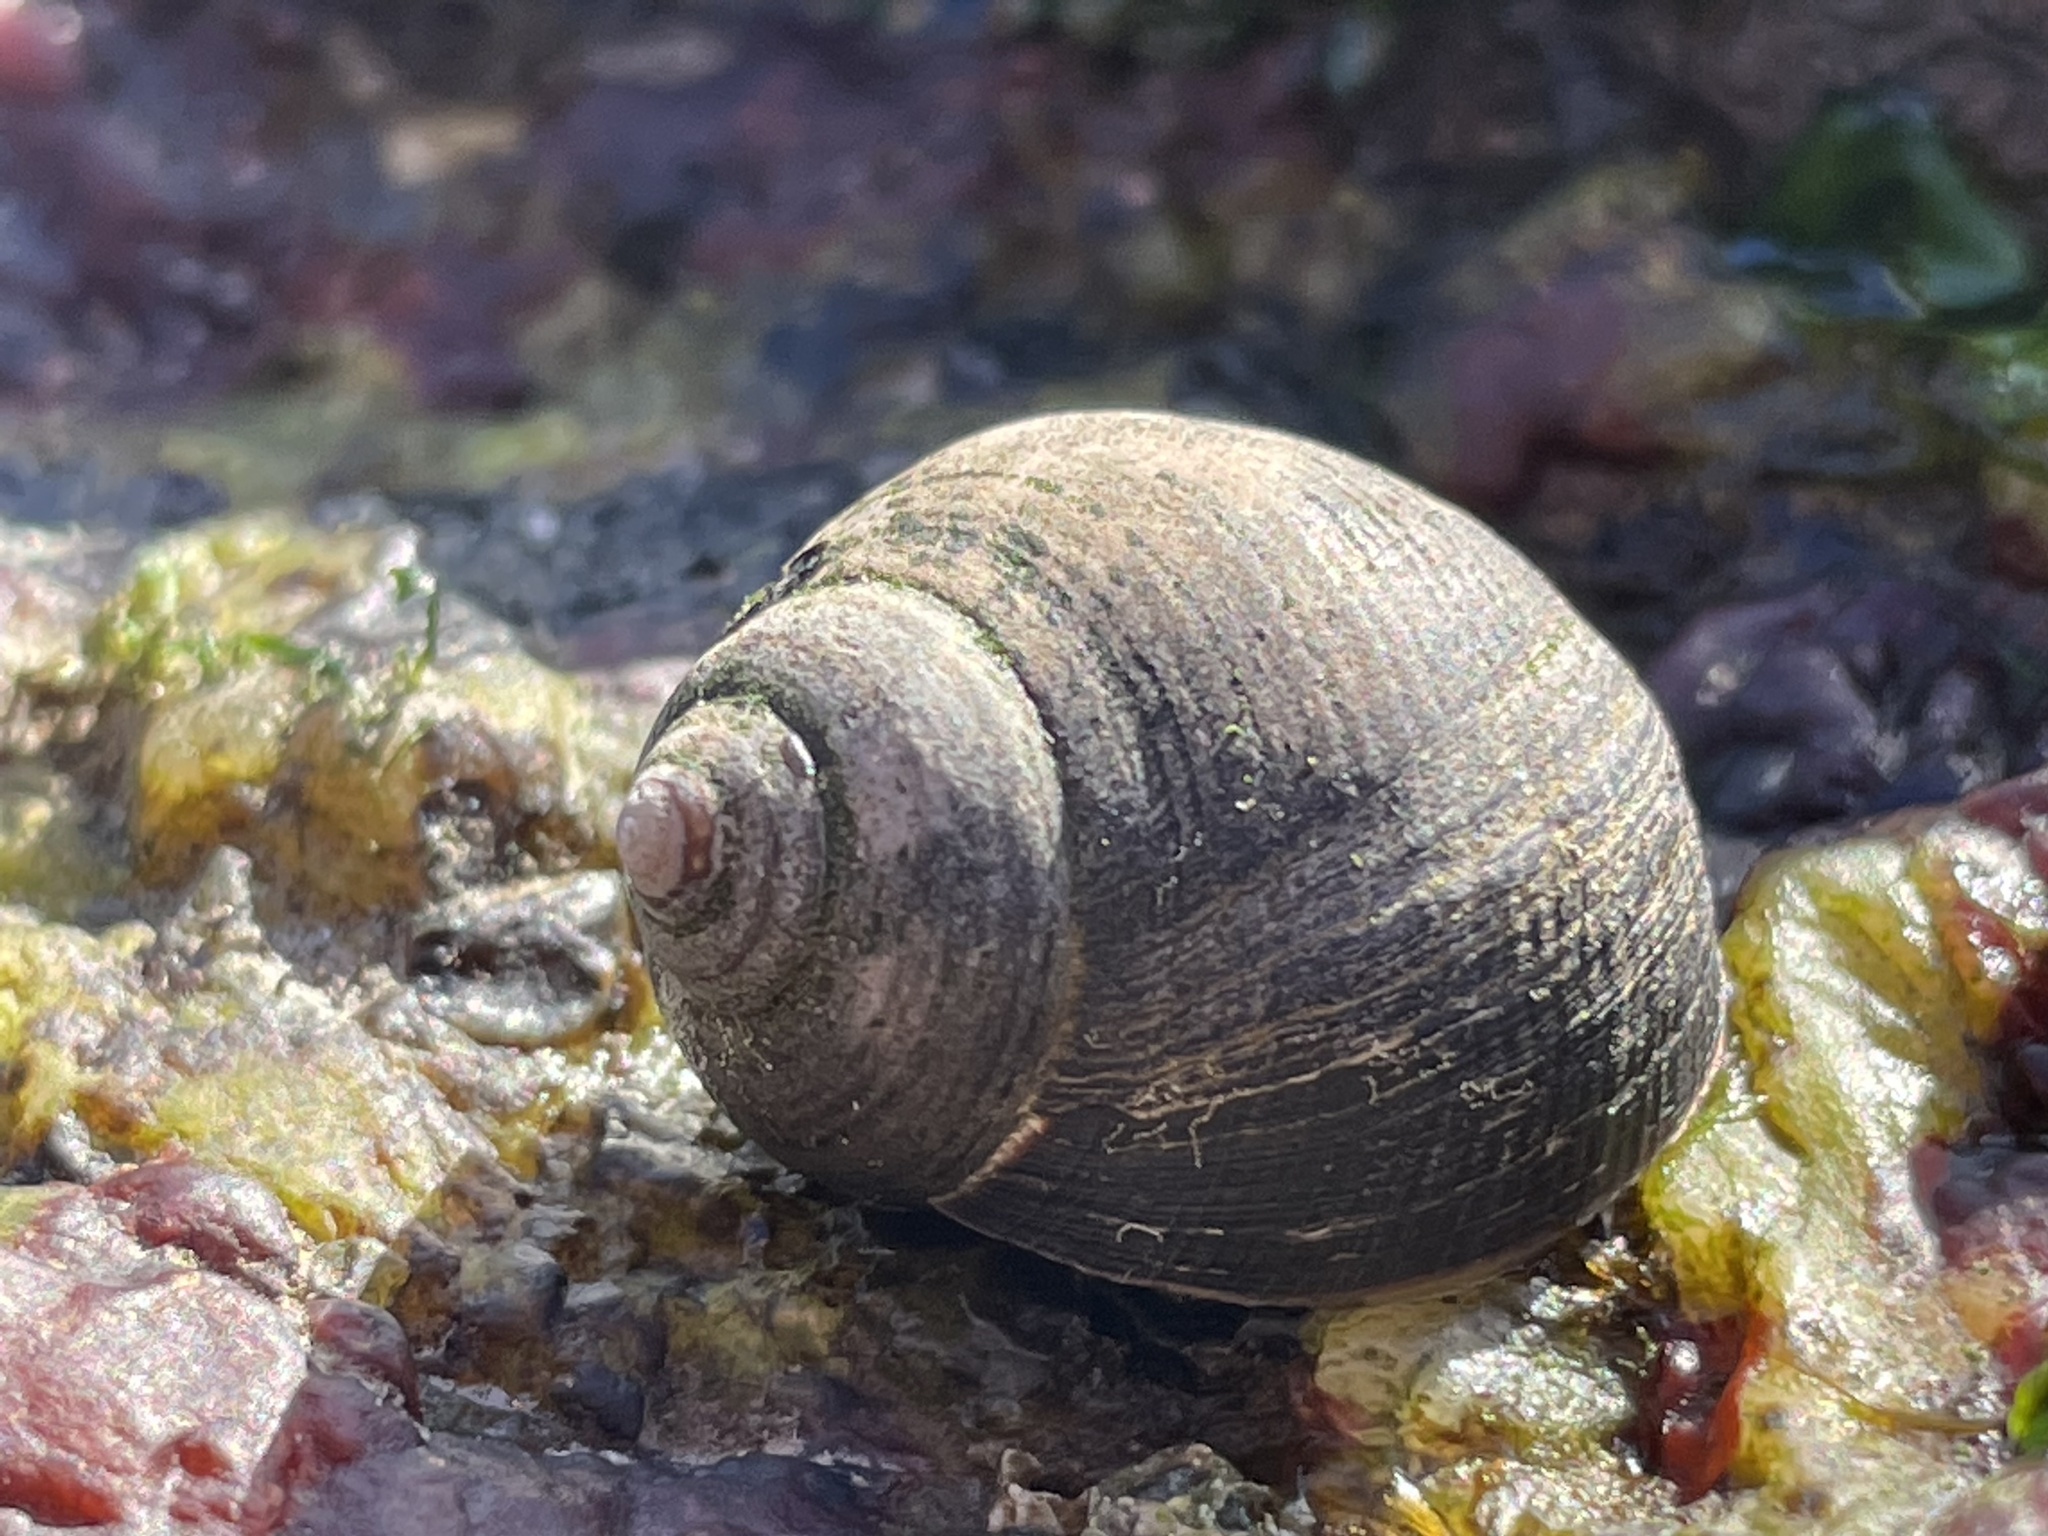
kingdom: Animalia
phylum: Mollusca
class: Gastropoda
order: Littorinimorpha
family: Littorinidae
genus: Littorina
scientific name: Littorina littorea
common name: Common periwinkle
